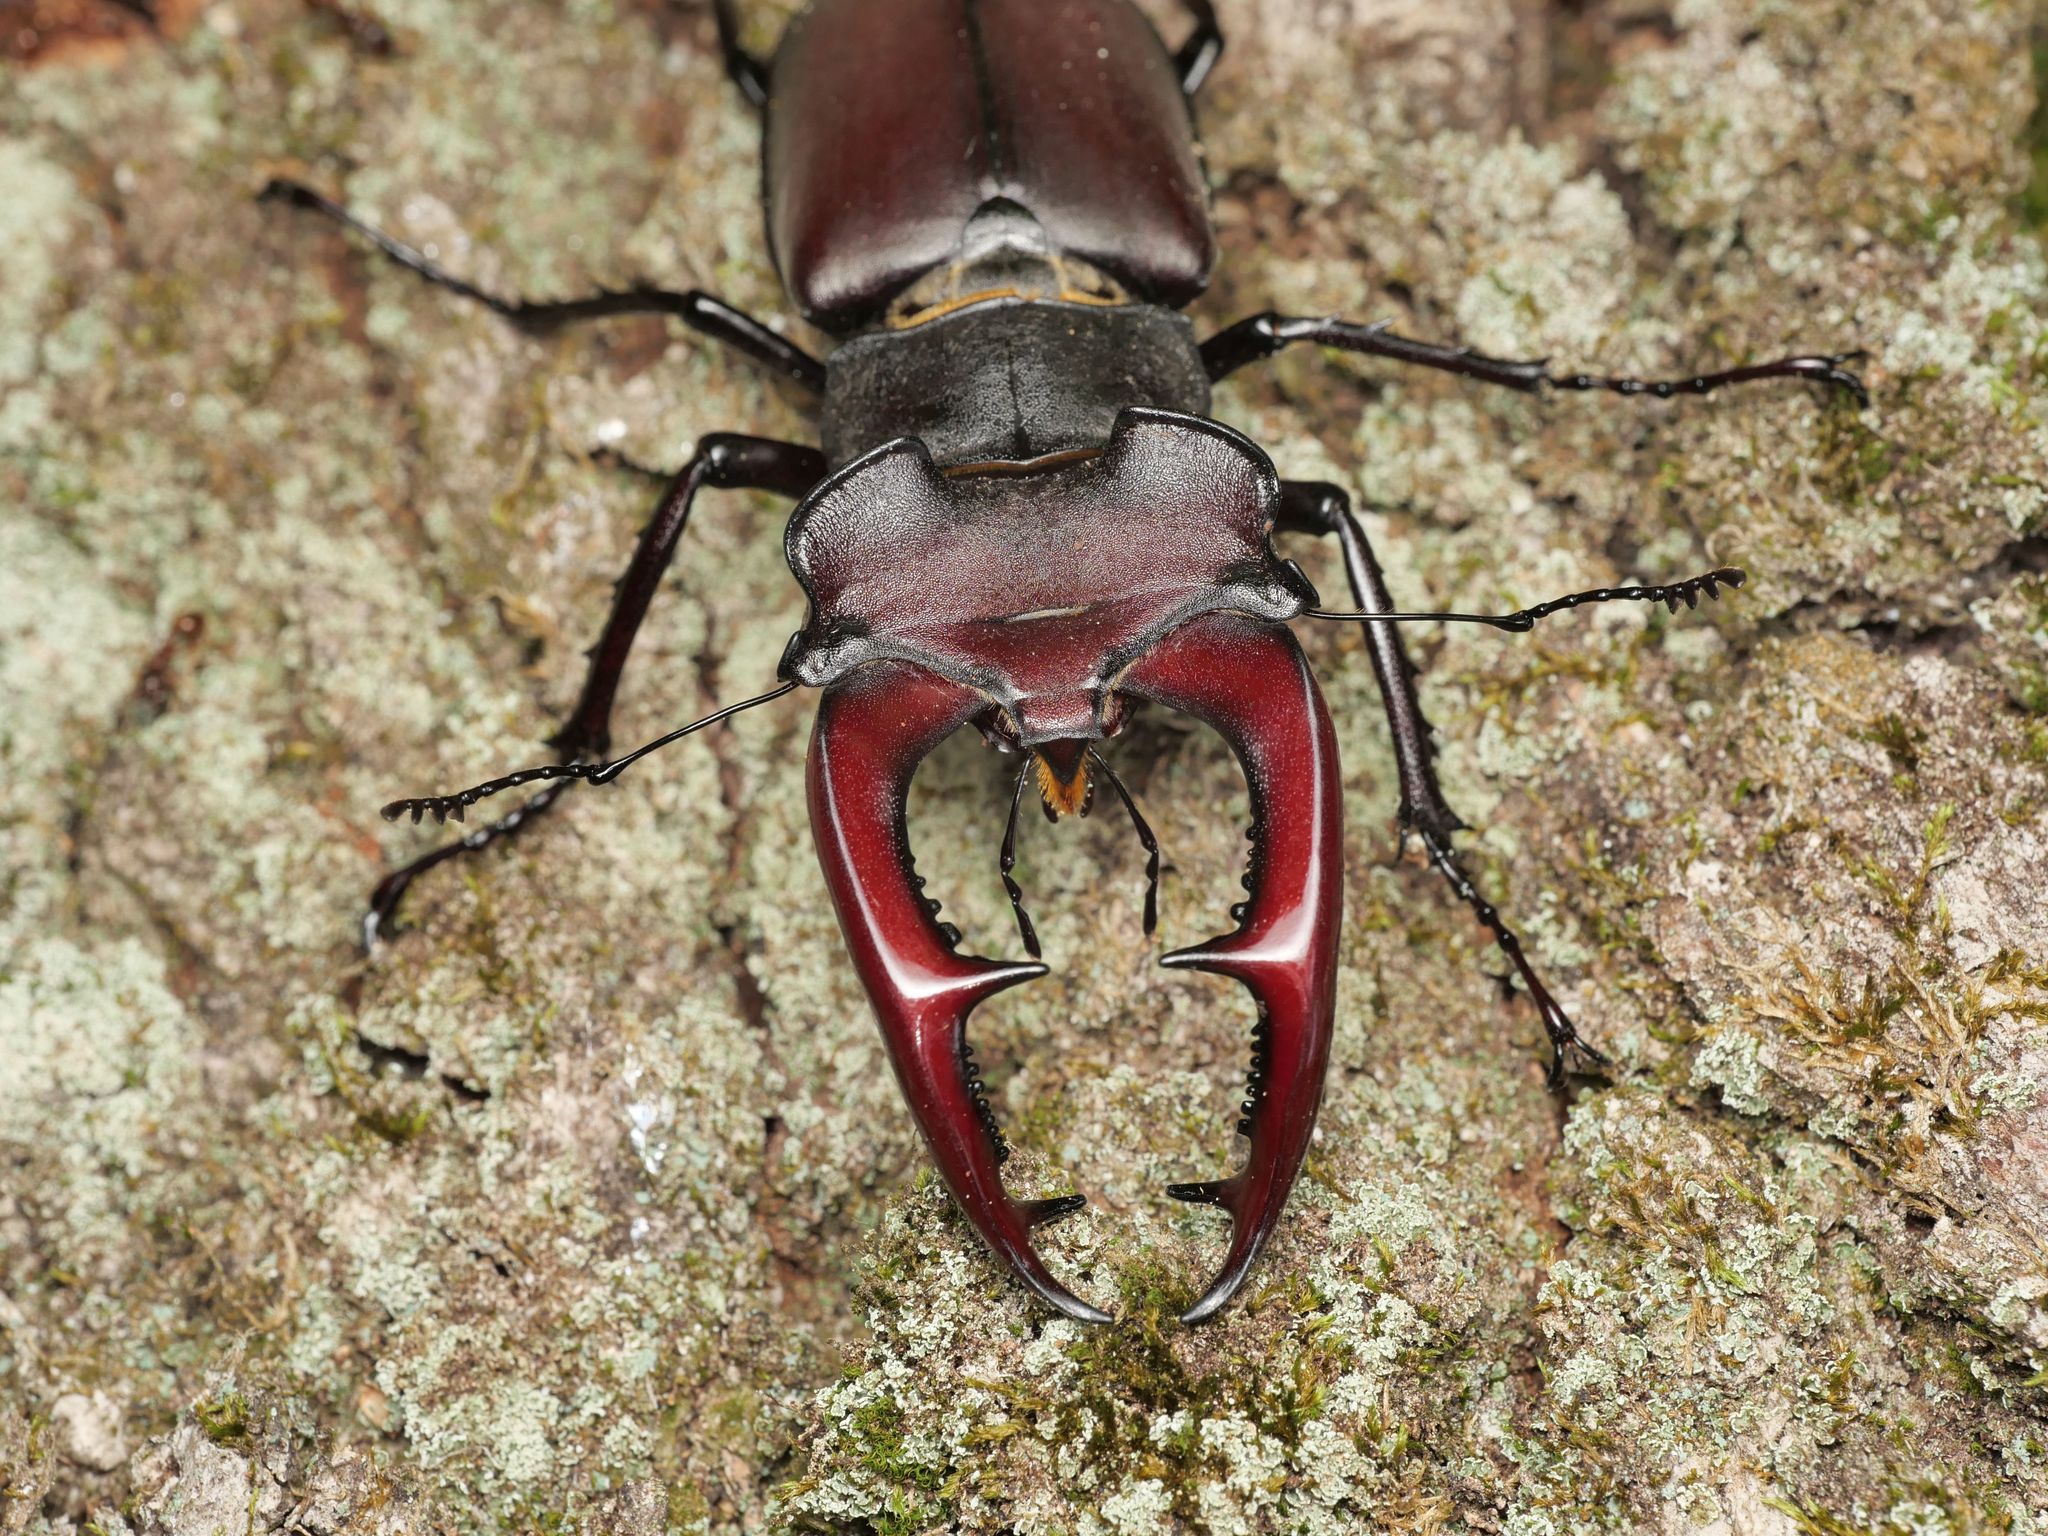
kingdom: Animalia
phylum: Arthropoda
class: Insecta
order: Coleoptera
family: Lucanidae
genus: Lucanus
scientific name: Lucanus cervus
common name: Stag beetle
